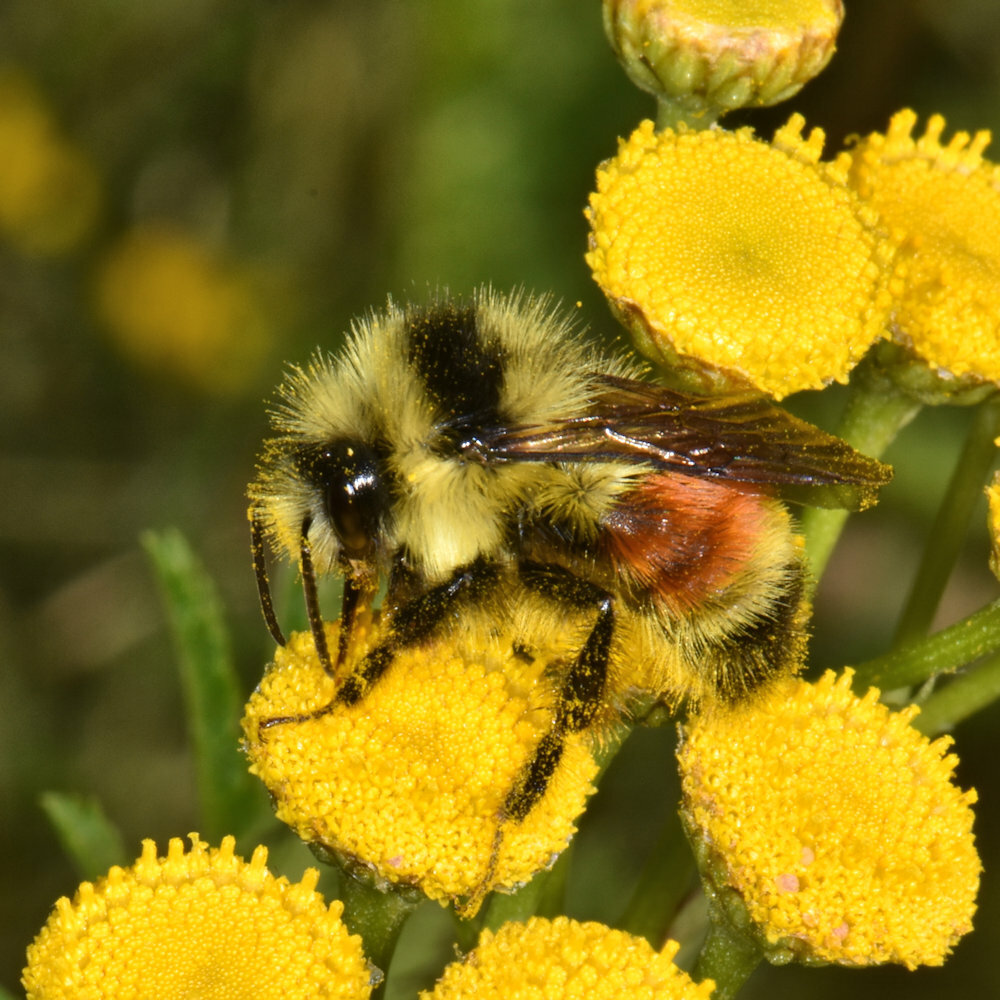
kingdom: Animalia
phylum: Arthropoda
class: Insecta
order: Hymenoptera
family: Apidae
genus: Bombus
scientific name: Bombus ternarius
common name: Tri-colored bumble bee
